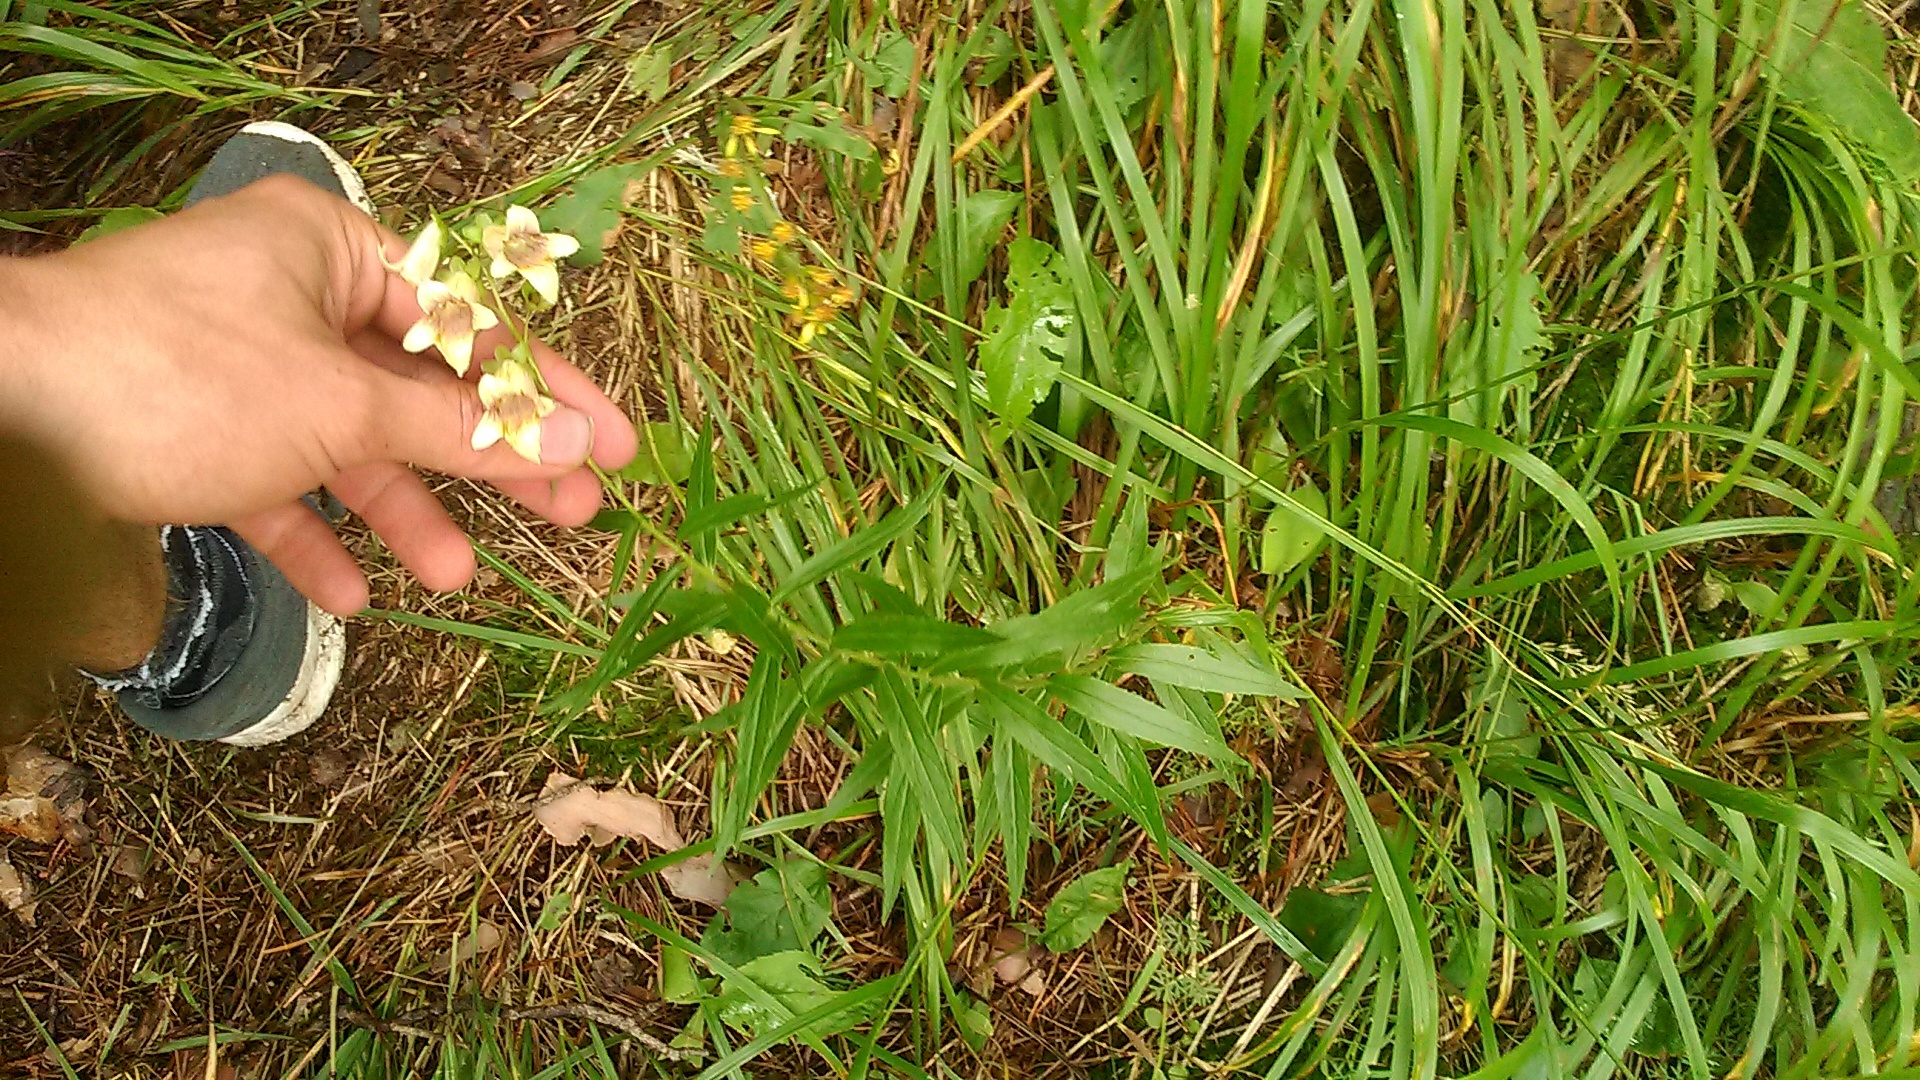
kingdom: Plantae
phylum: Tracheophyta
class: Magnoliopsida
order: Lamiales
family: Plantaginaceae
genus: Digitalis
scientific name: Digitalis ciliata
